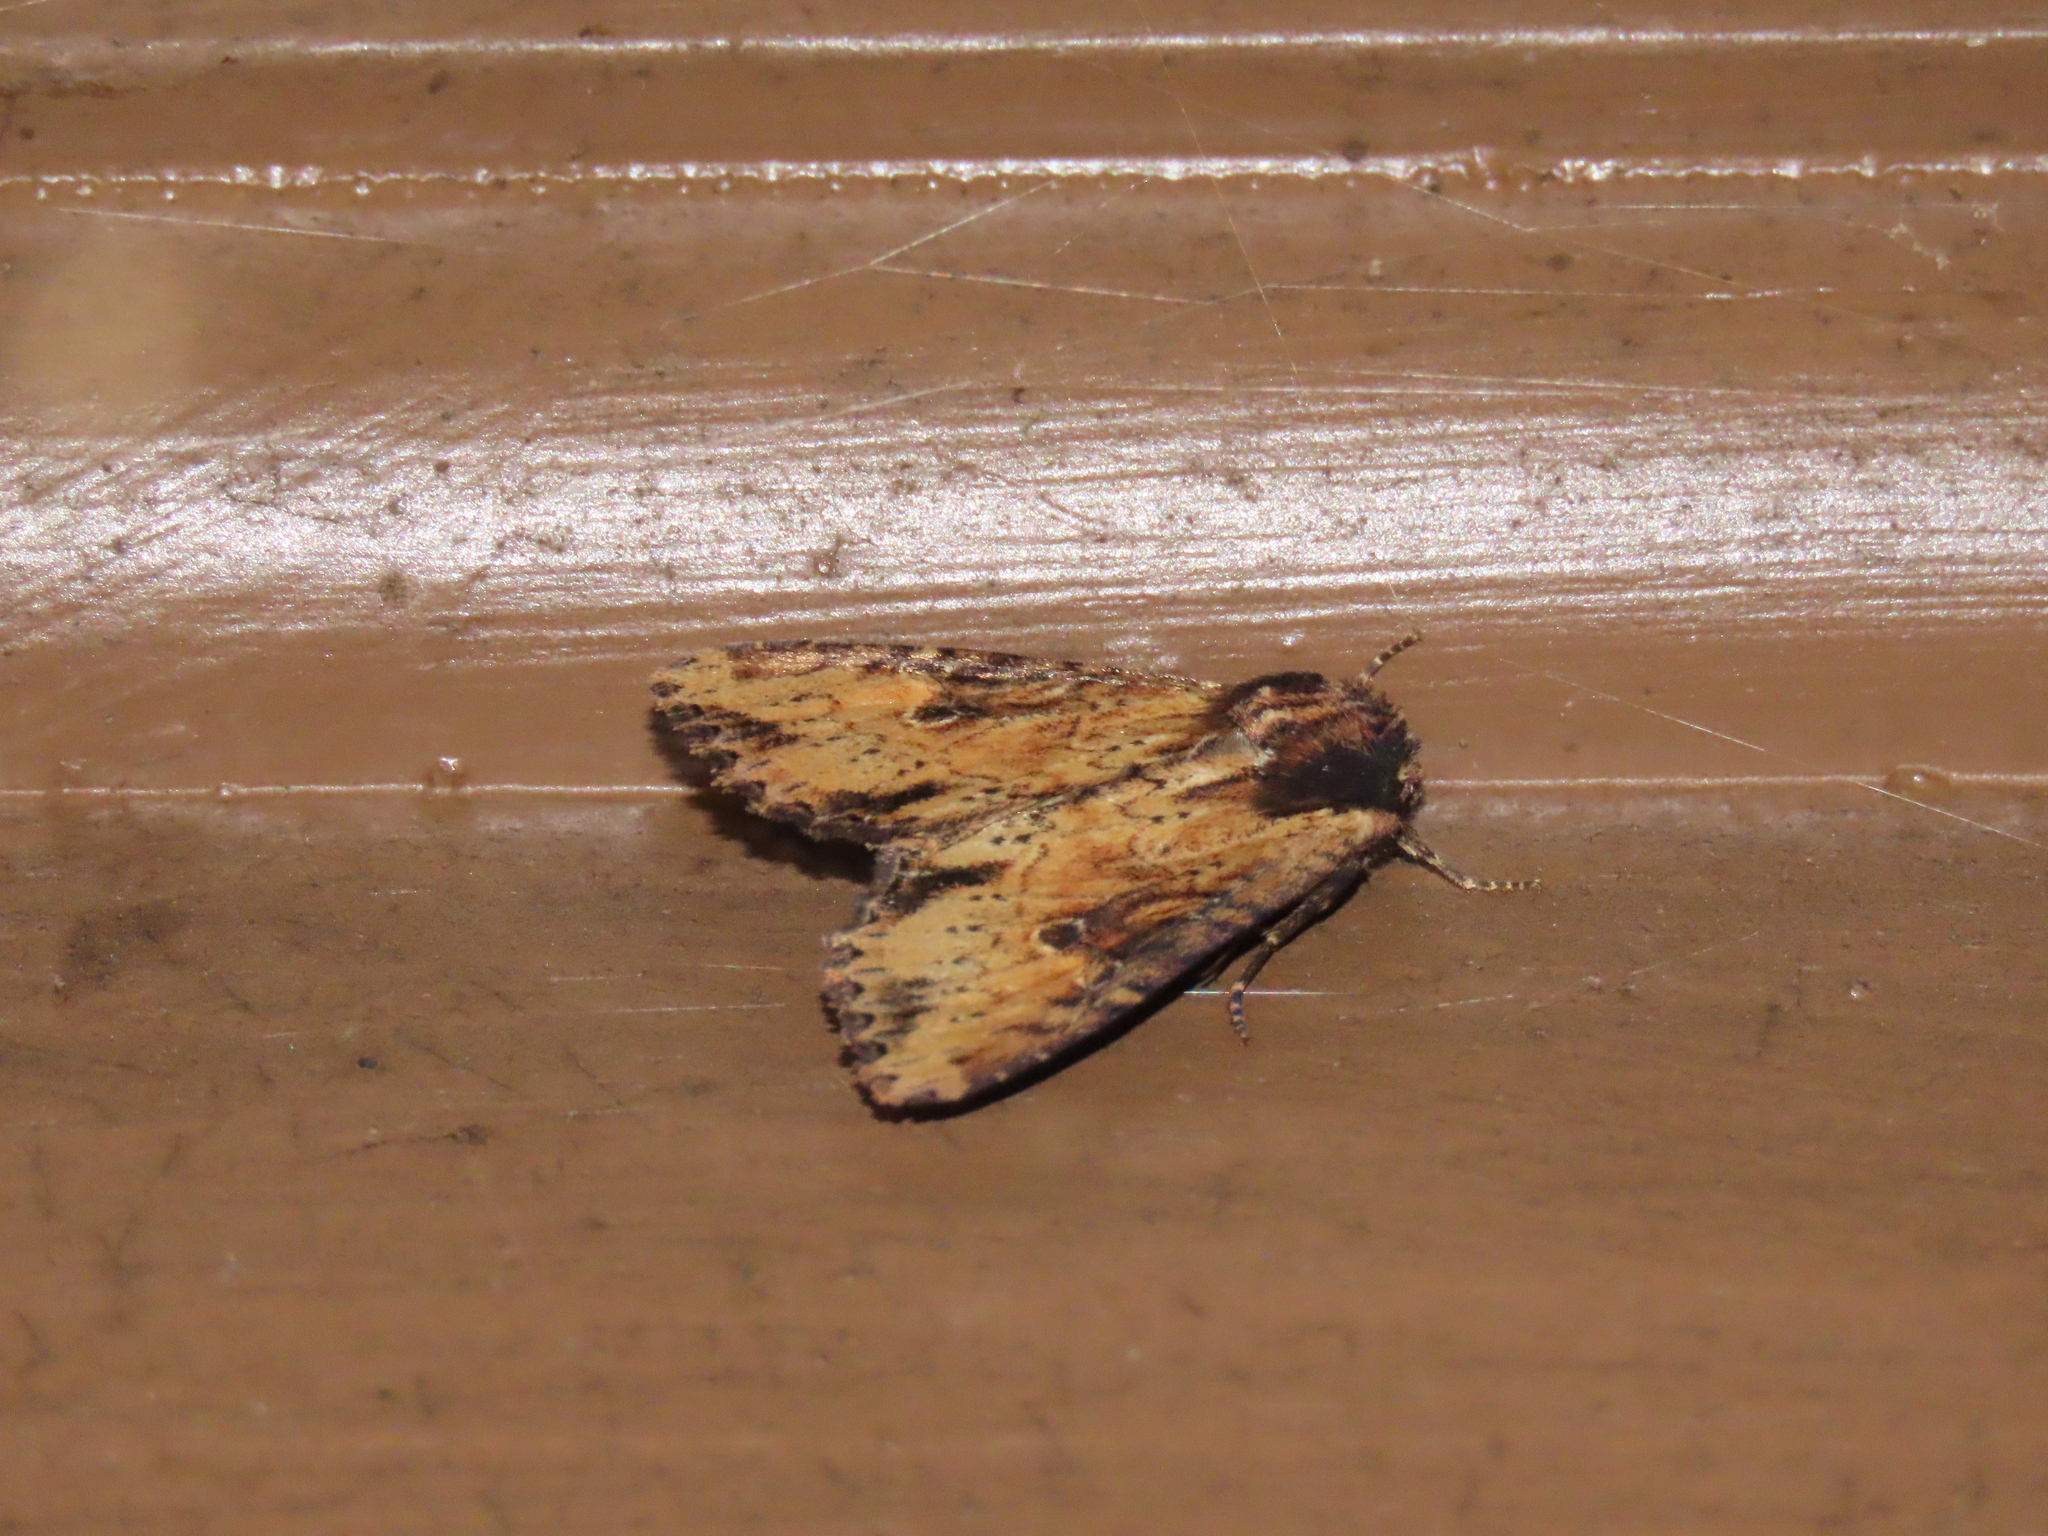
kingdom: Animalia
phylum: Arthropoda
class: Insecta
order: Lepidoptera
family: Noctuidae
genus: Apamea
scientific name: Apamea vultuosa
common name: Airy apamea moth
